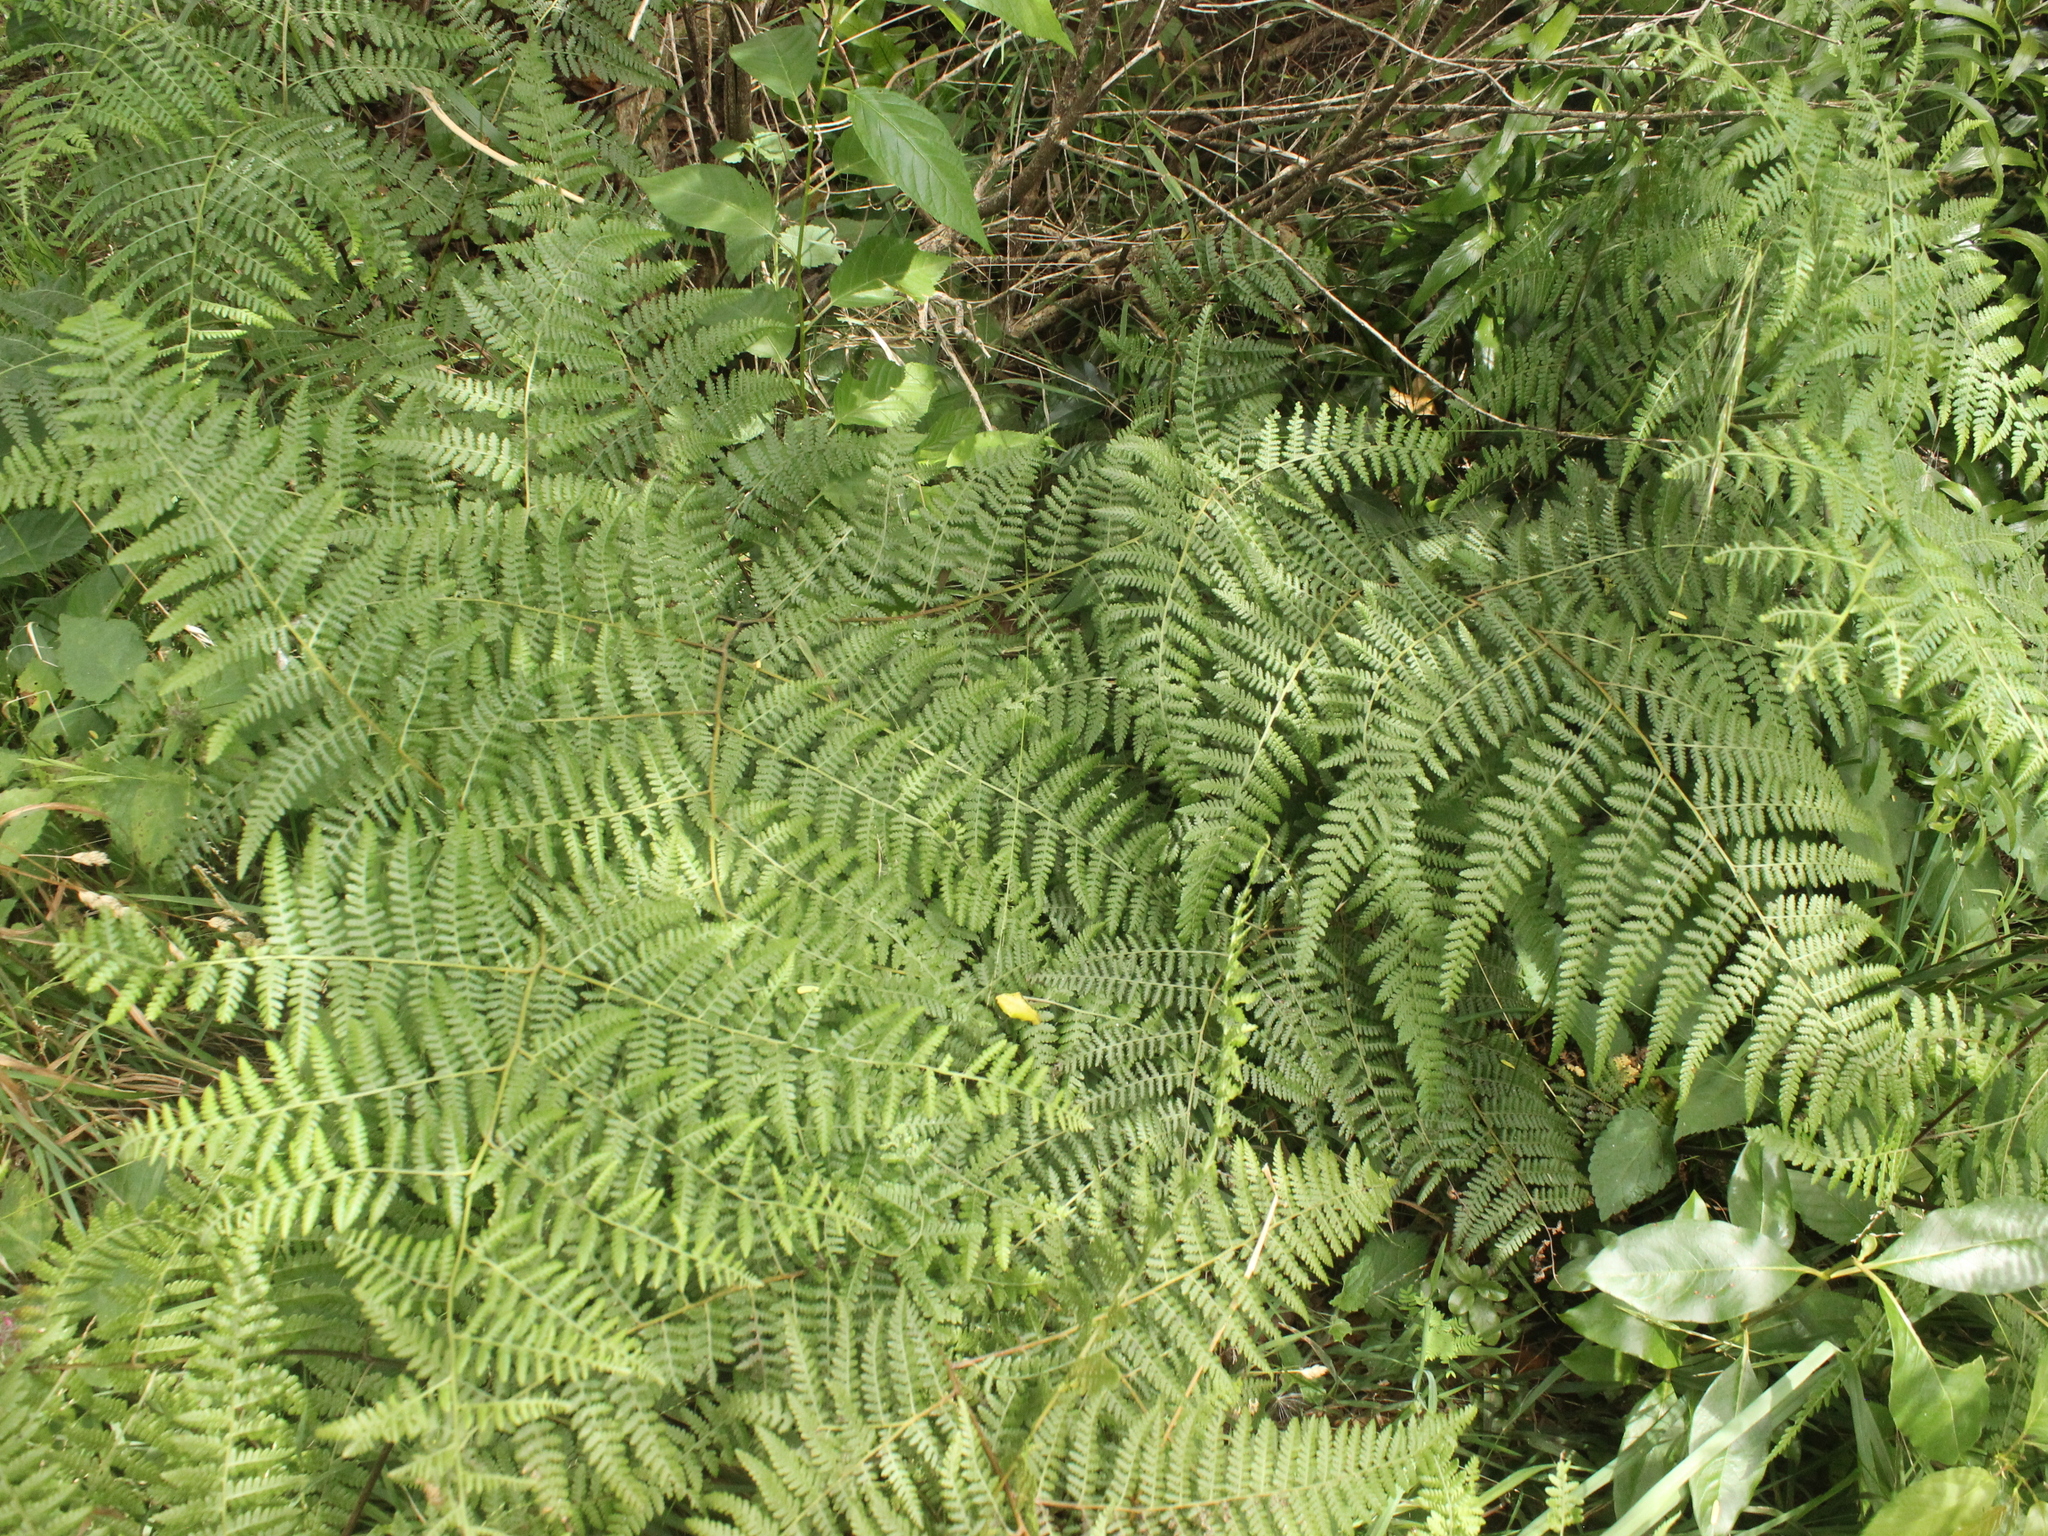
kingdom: Plantae
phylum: Tracheophyta
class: Polypodiopsida
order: Polypodiales
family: Dennstaedtiaceae
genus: Hypolepis
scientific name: Hypolepis ambigua
